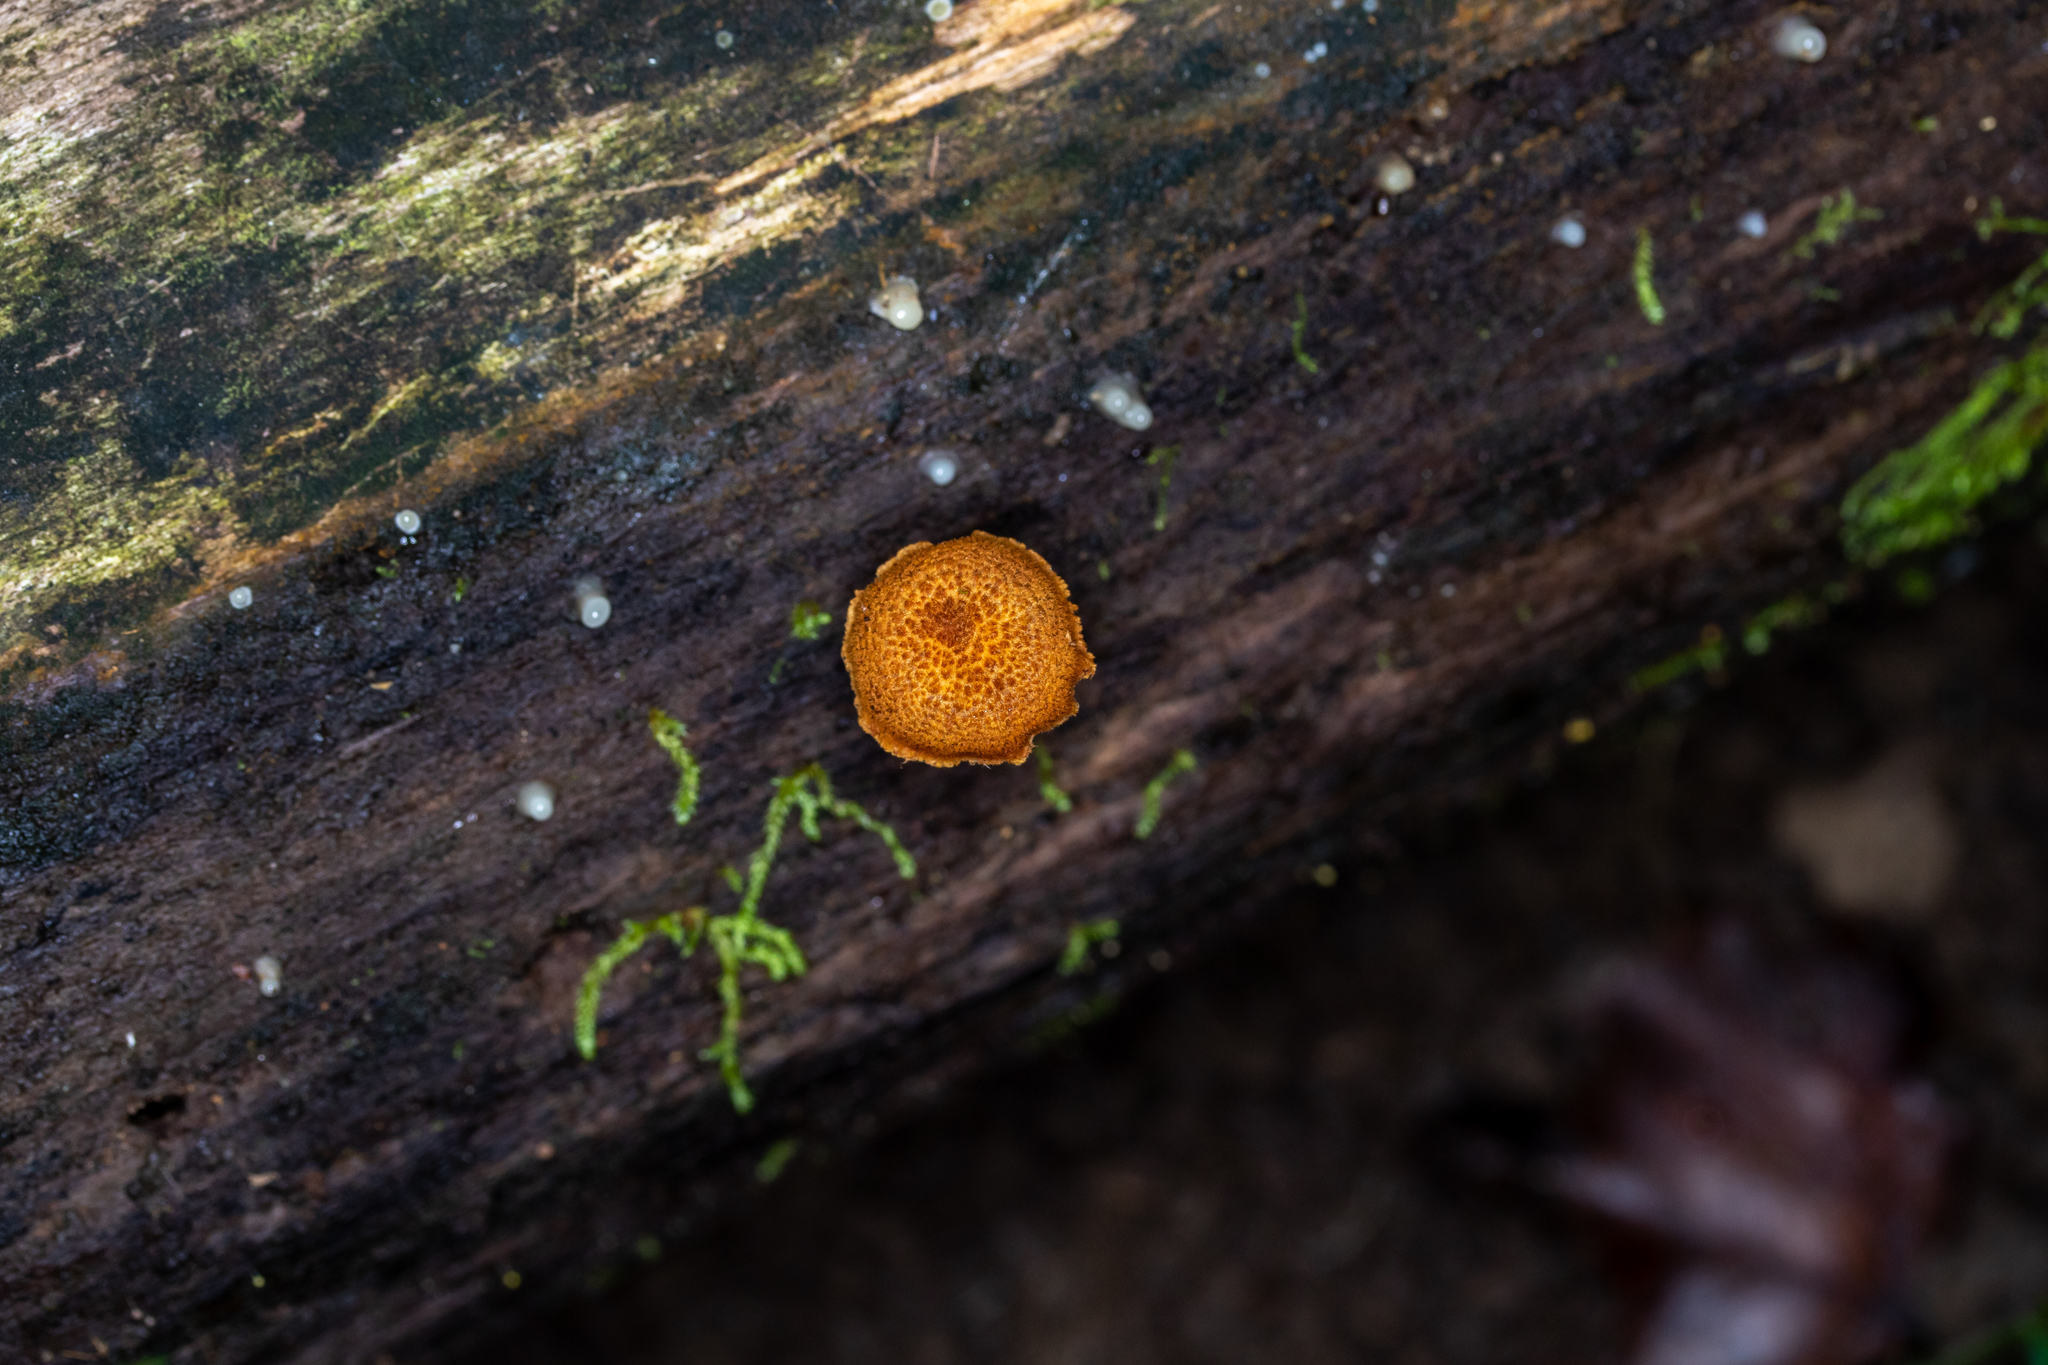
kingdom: Fungi
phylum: Basidiomycota
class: Agaricomycetes
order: Agaricales
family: Tubariaceae
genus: Flammulaster
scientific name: Flammulaster erinaceellus
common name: Powder-scale pholiota
